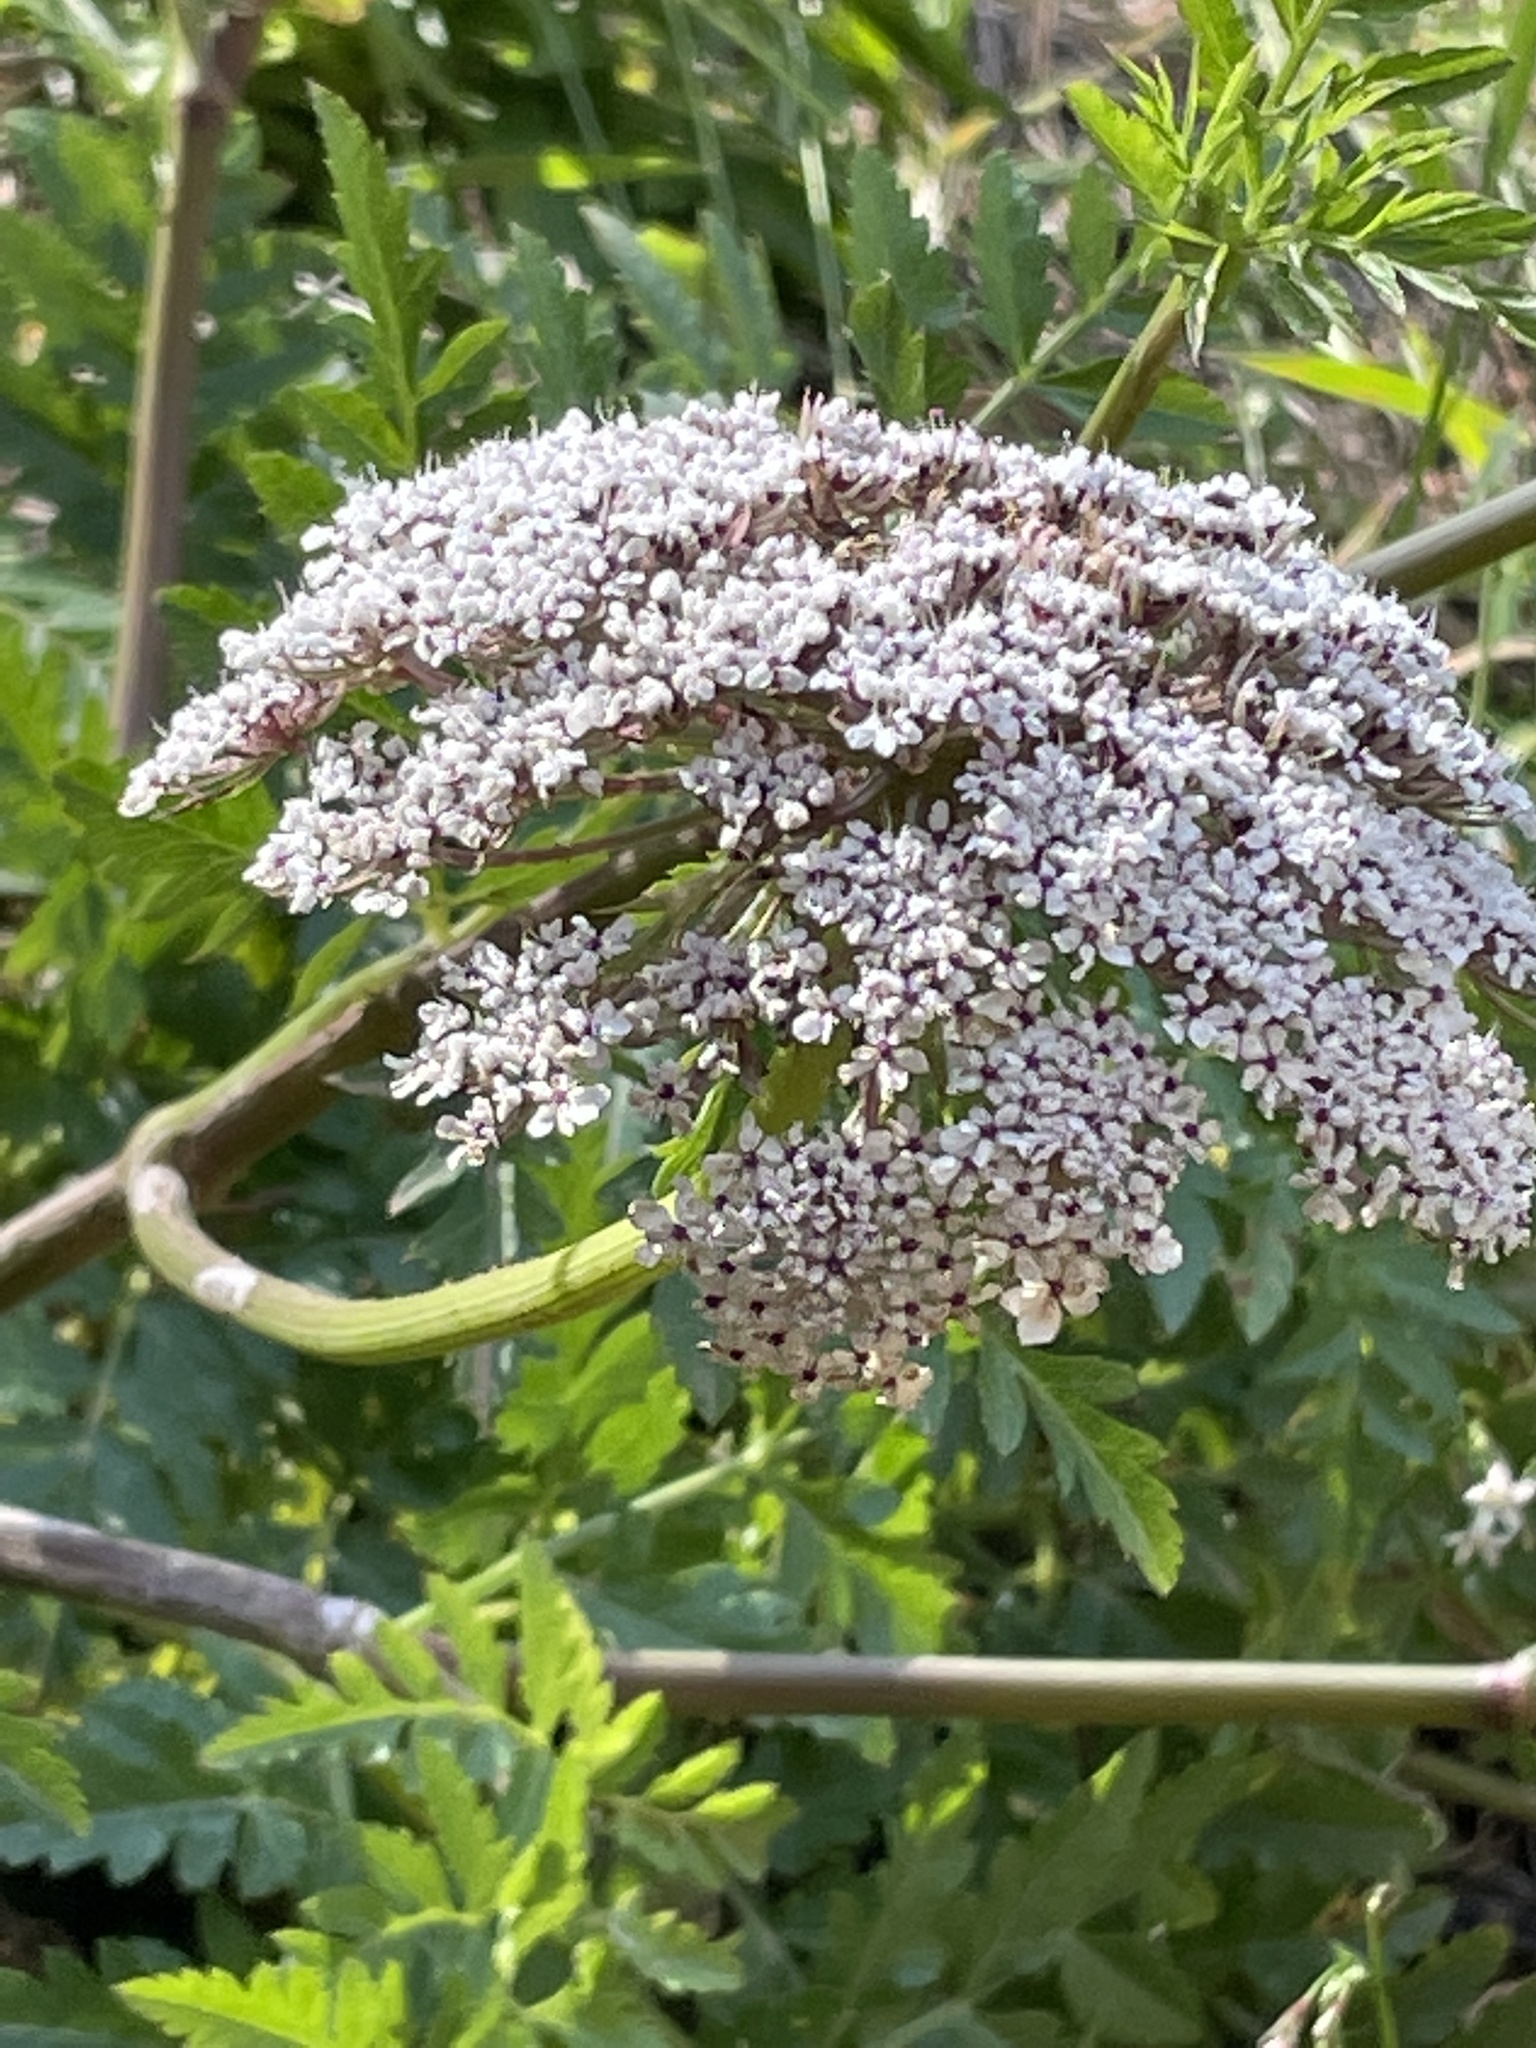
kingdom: Plantae
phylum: Tracheophyta
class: Magnoliopsida
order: Apiales
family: Apiaceae
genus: Daucus
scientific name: Daucus insularis
